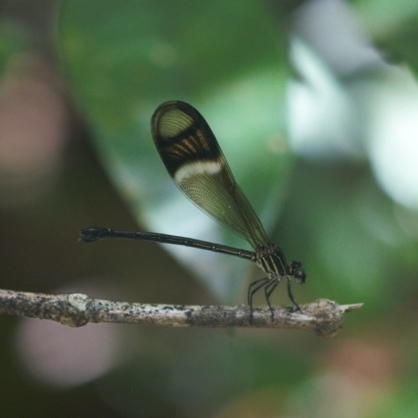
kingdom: Animalia
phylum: Arthropoda
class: Insecta
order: Odonata
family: Polythoridae
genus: Polythore
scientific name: Polythore picta
